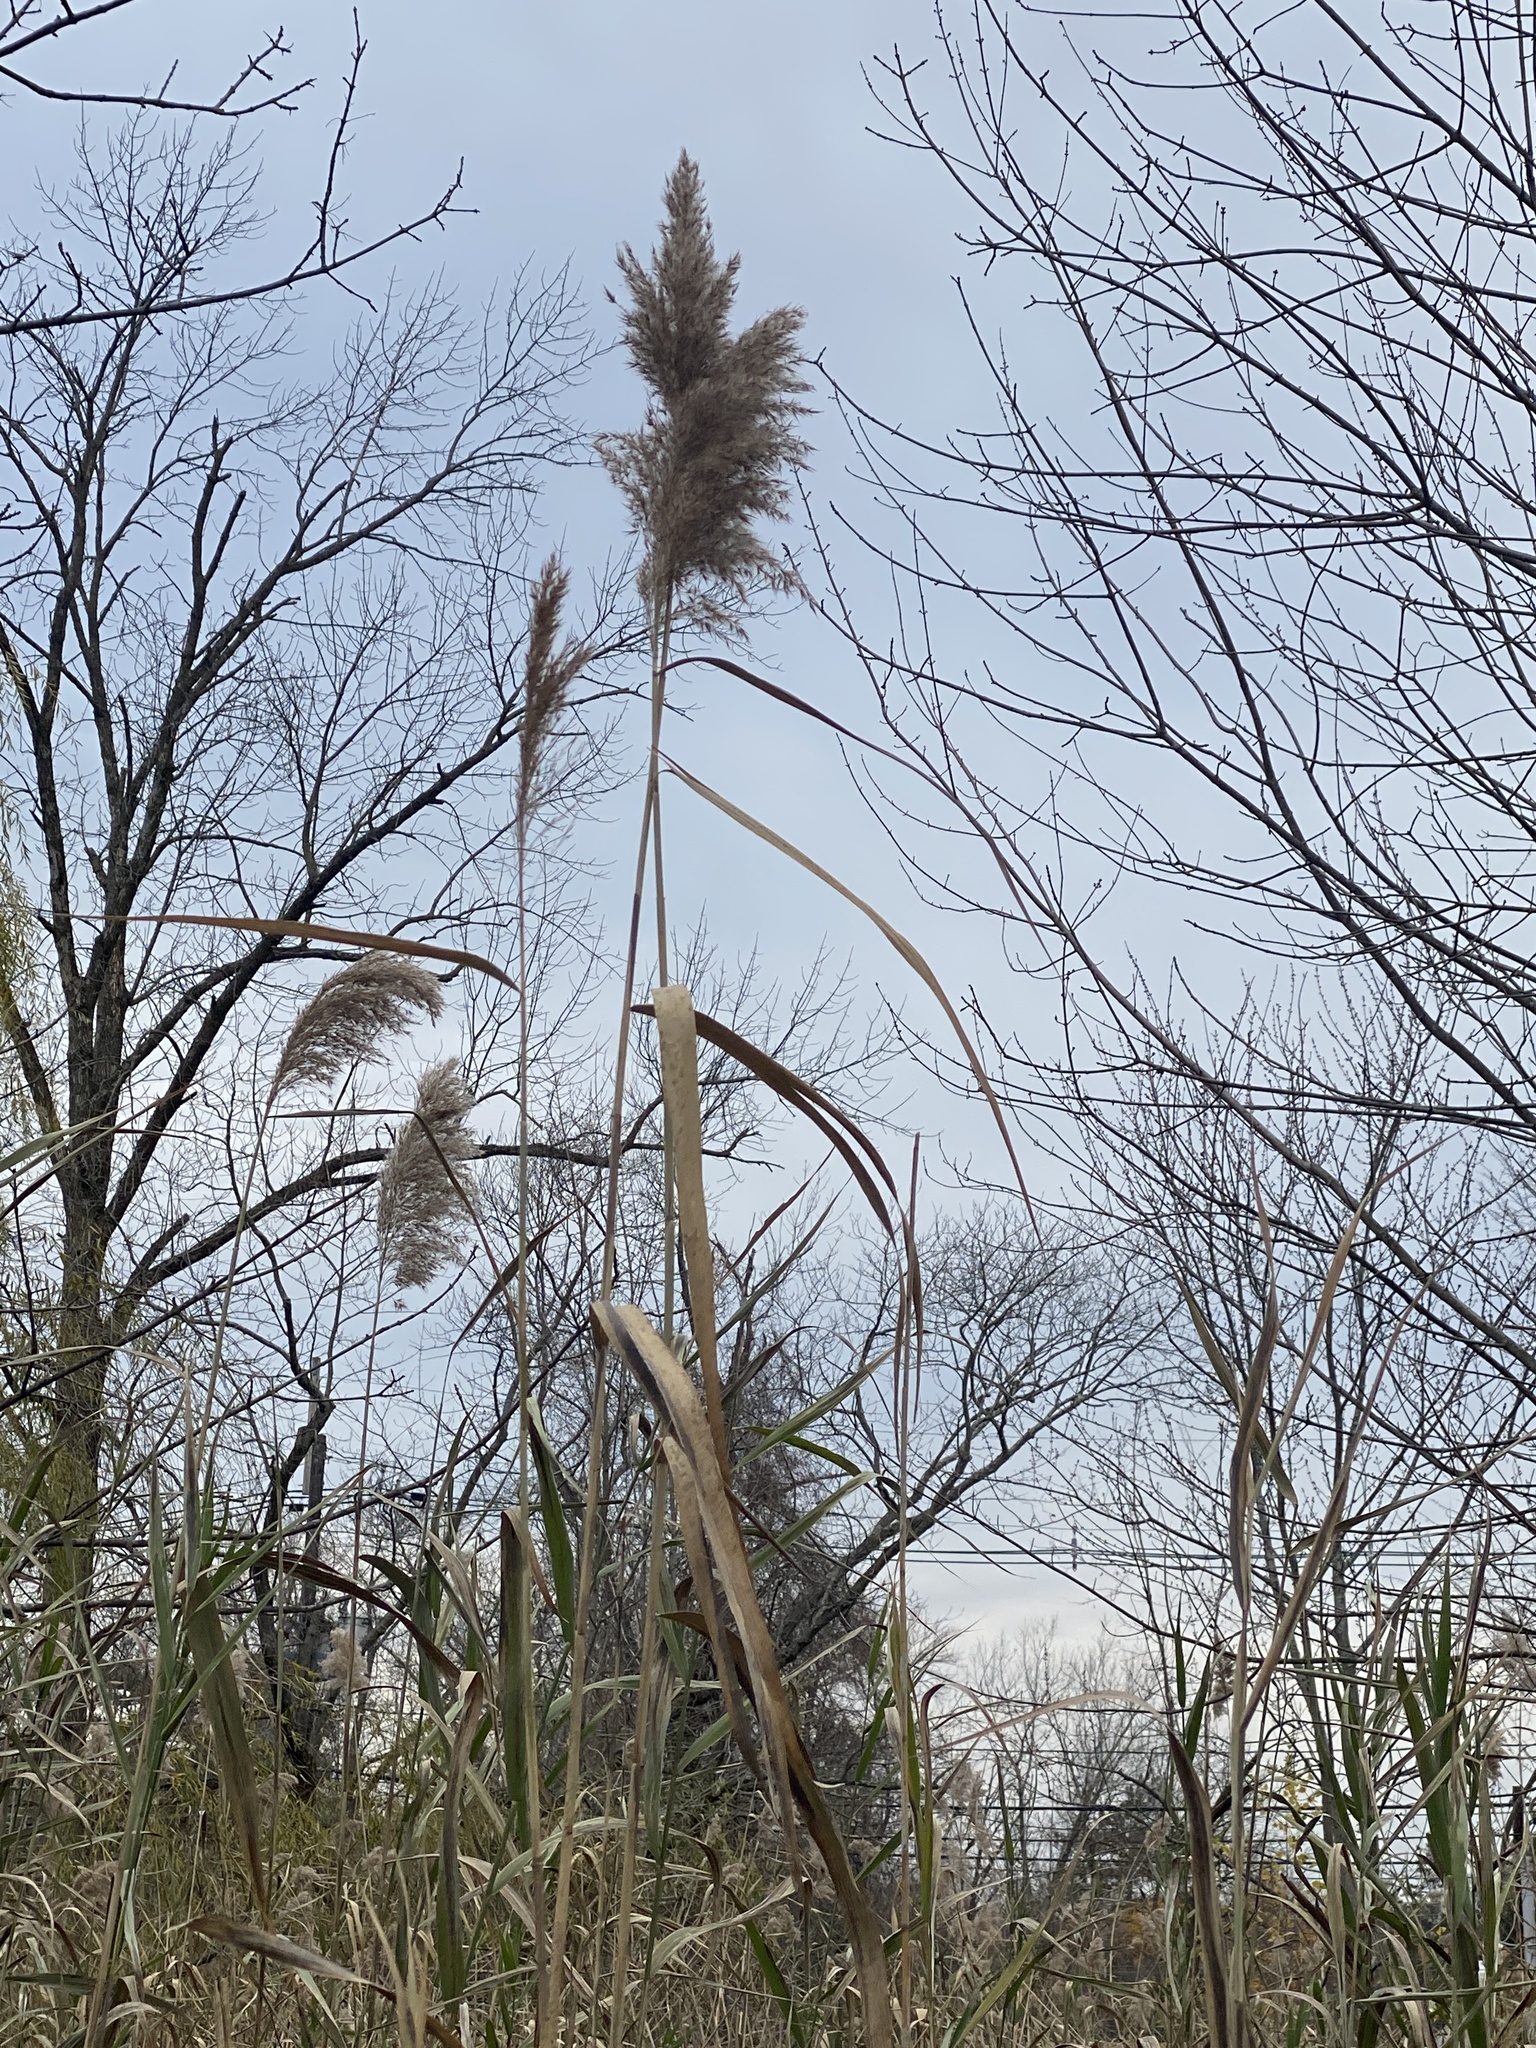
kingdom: Plantae
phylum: Tracheophyta
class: Liliopsida
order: Poales
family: Poaceae
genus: Phragmites
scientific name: Phragmites australis
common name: Common reed
